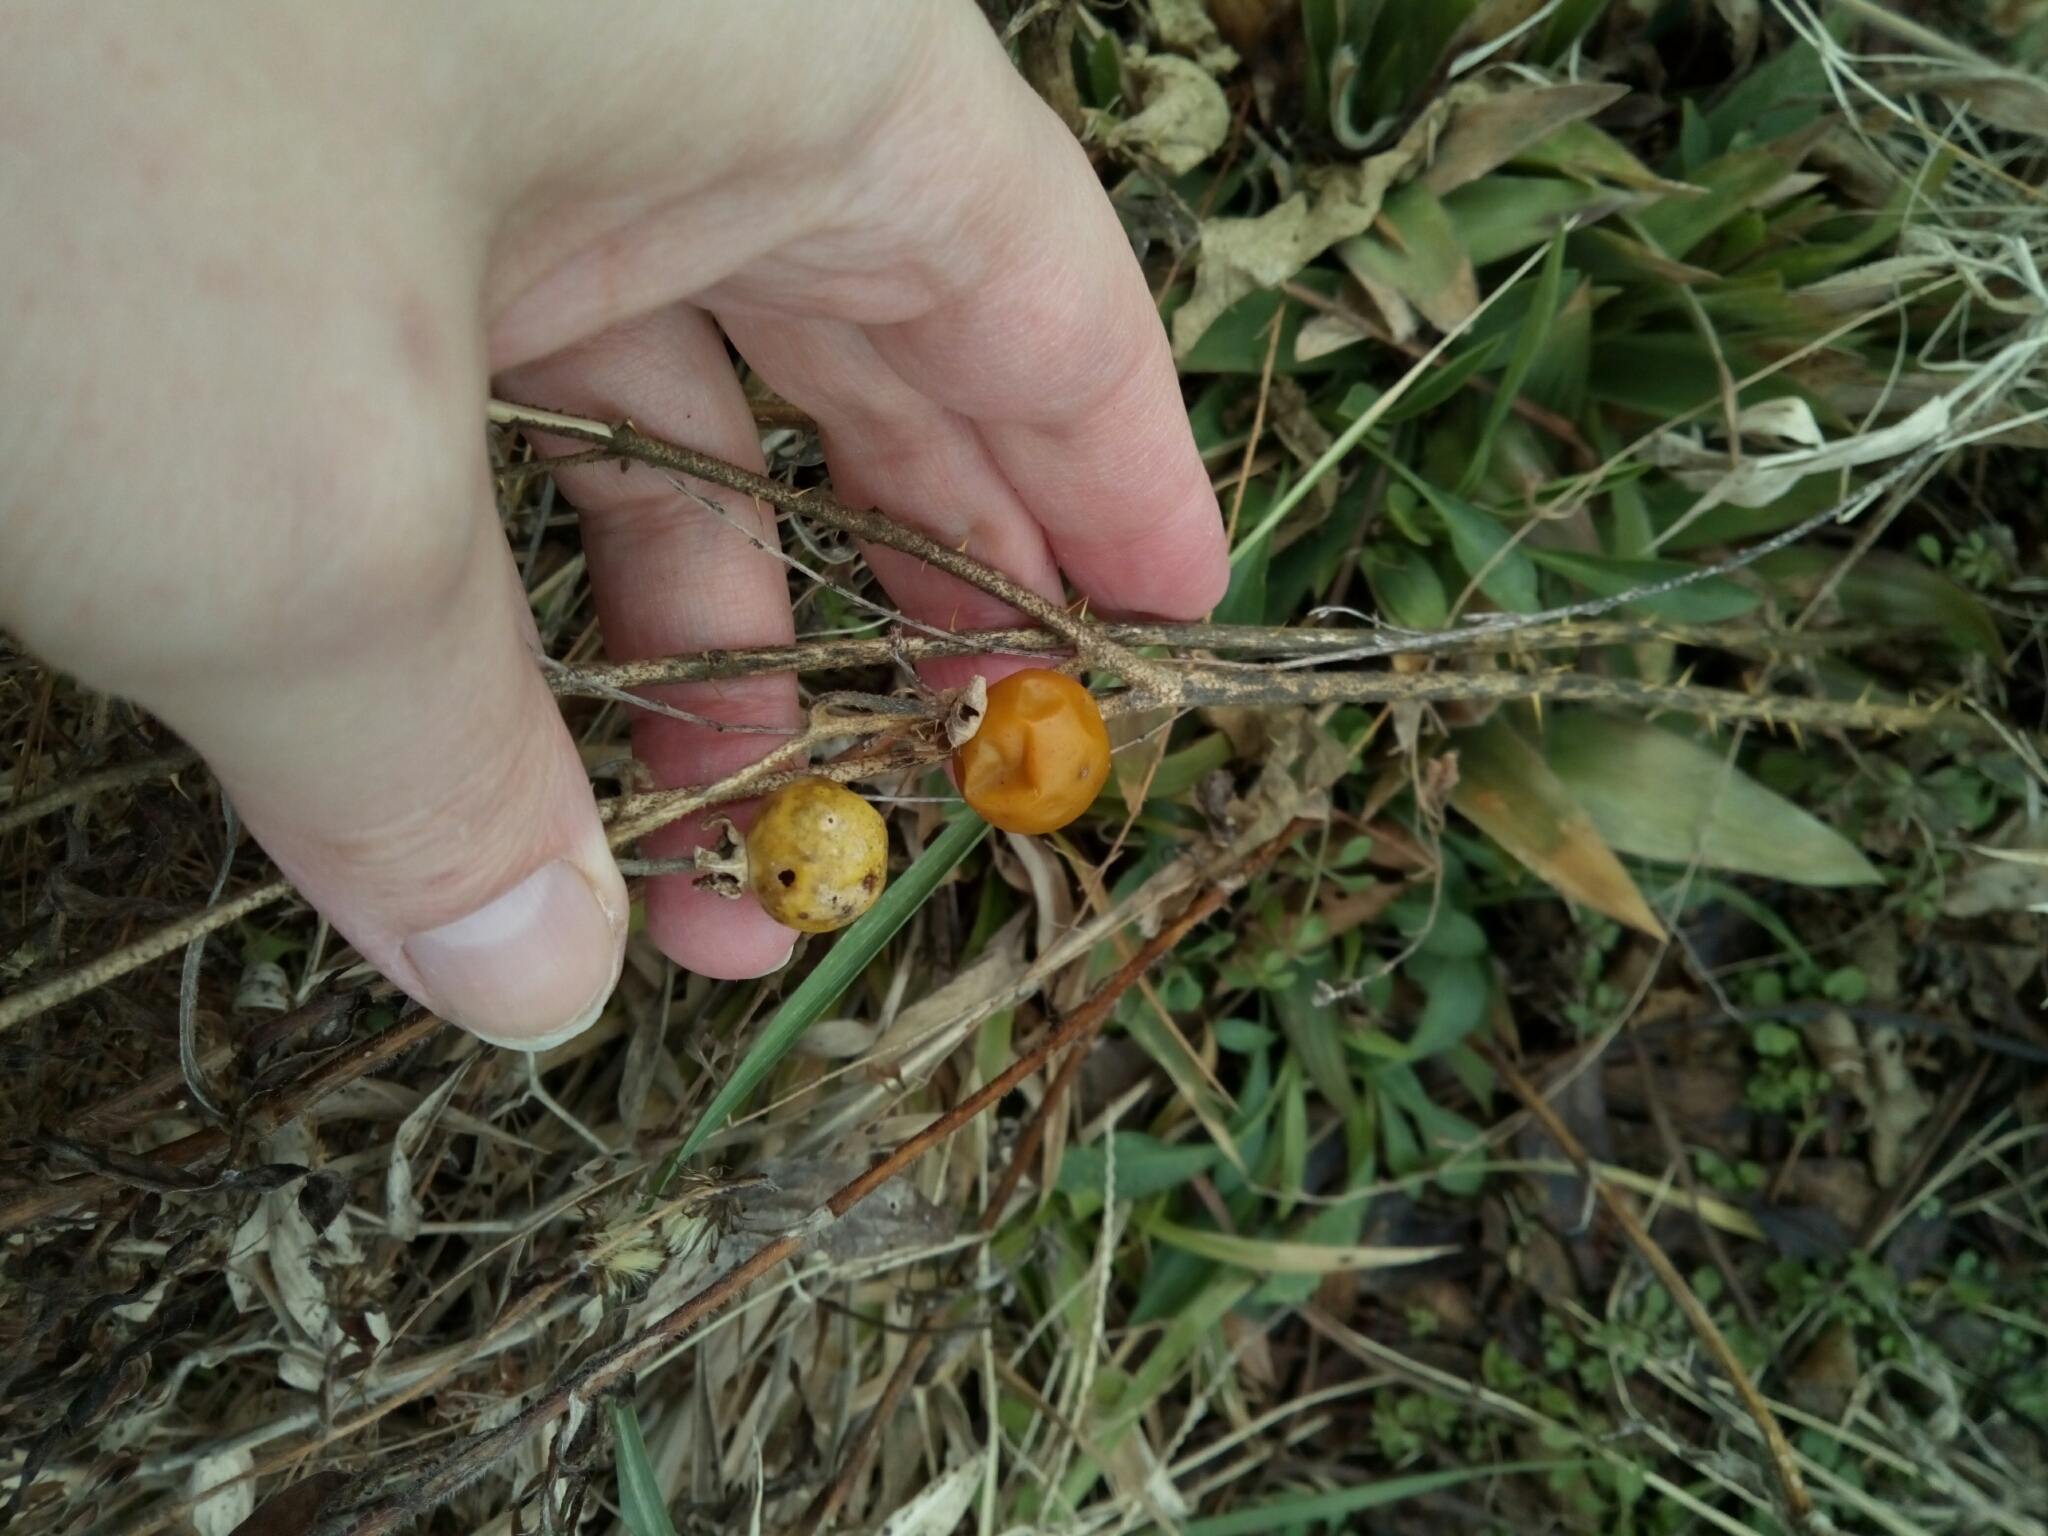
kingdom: Plantae
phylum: Tracheophyta
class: Magnoliopsida
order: Solanales
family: Solanaceae
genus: Solanum
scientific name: Solanum carolinense
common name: Horse-nettle
